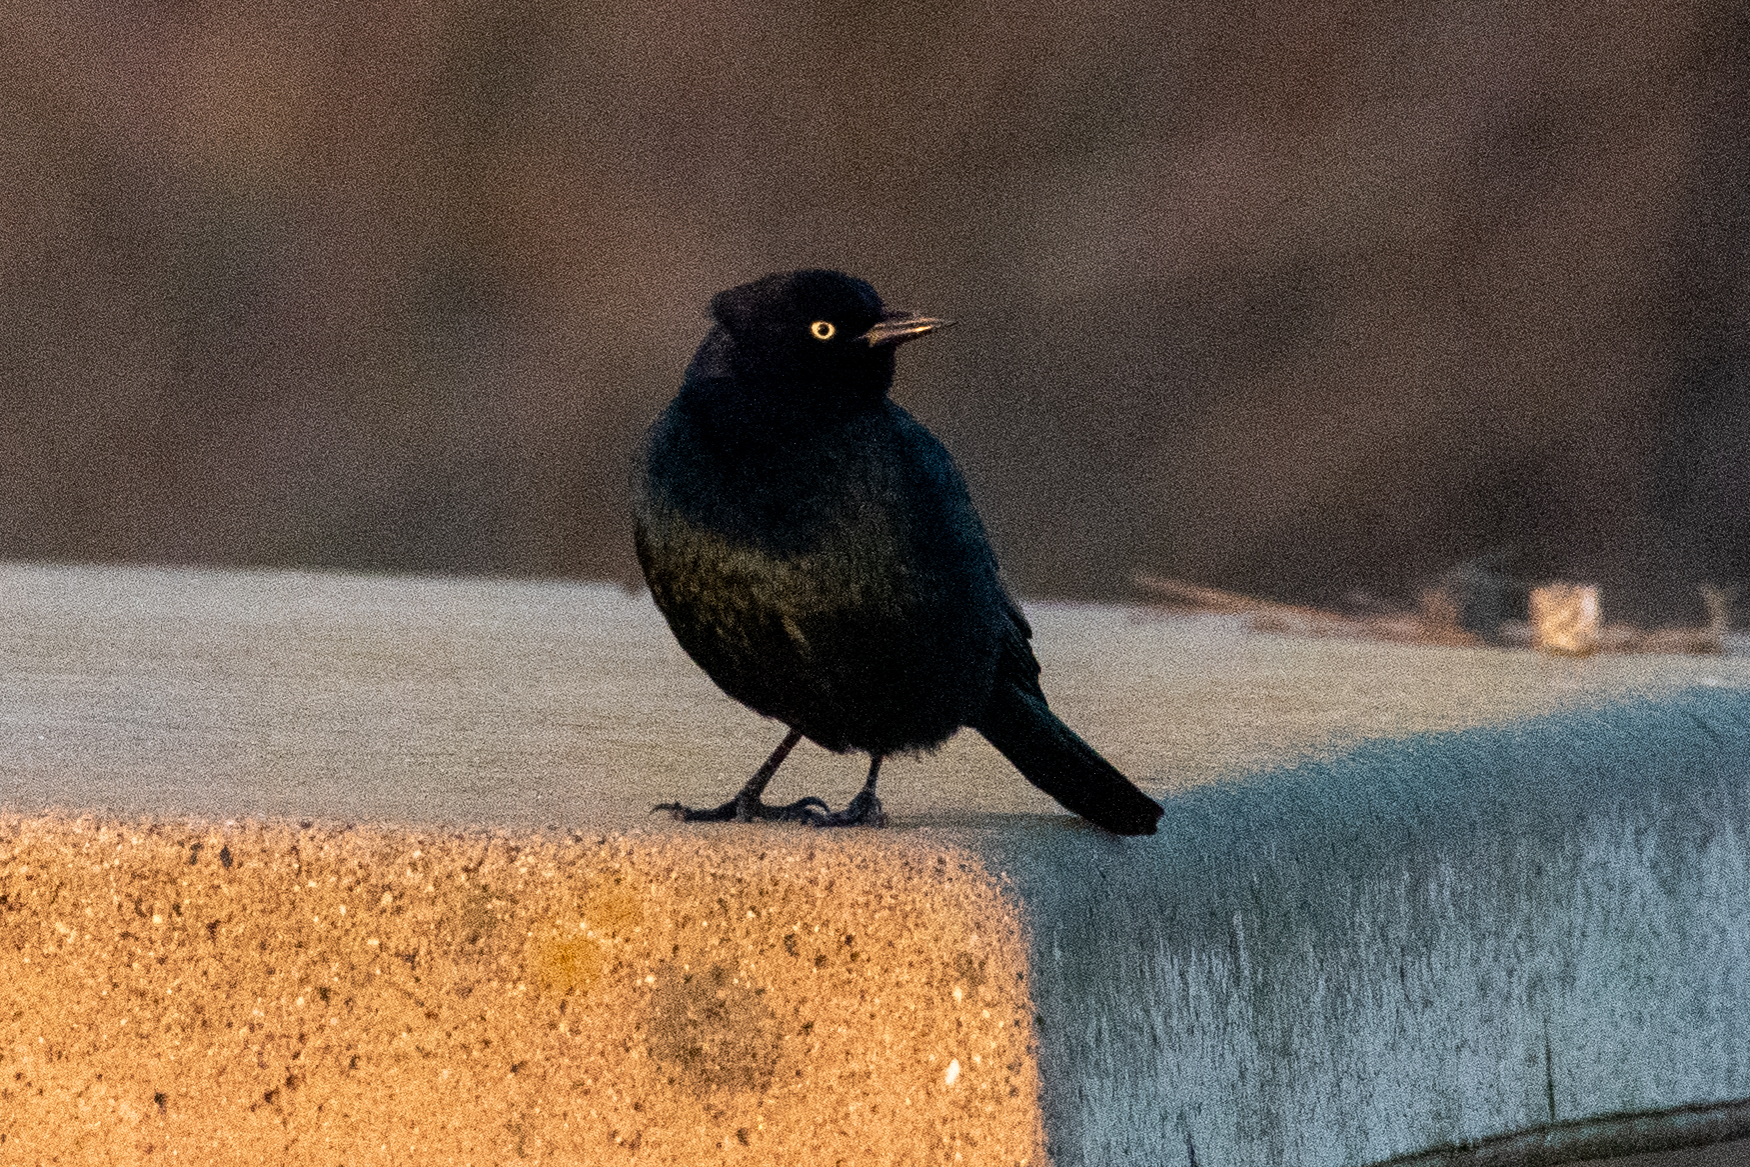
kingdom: Animalia
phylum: Chordata
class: Aves
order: Passeriformes
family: Icteridae
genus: Euphagus
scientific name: Euphagus cyanocephalus
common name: Brewer's blackbird
